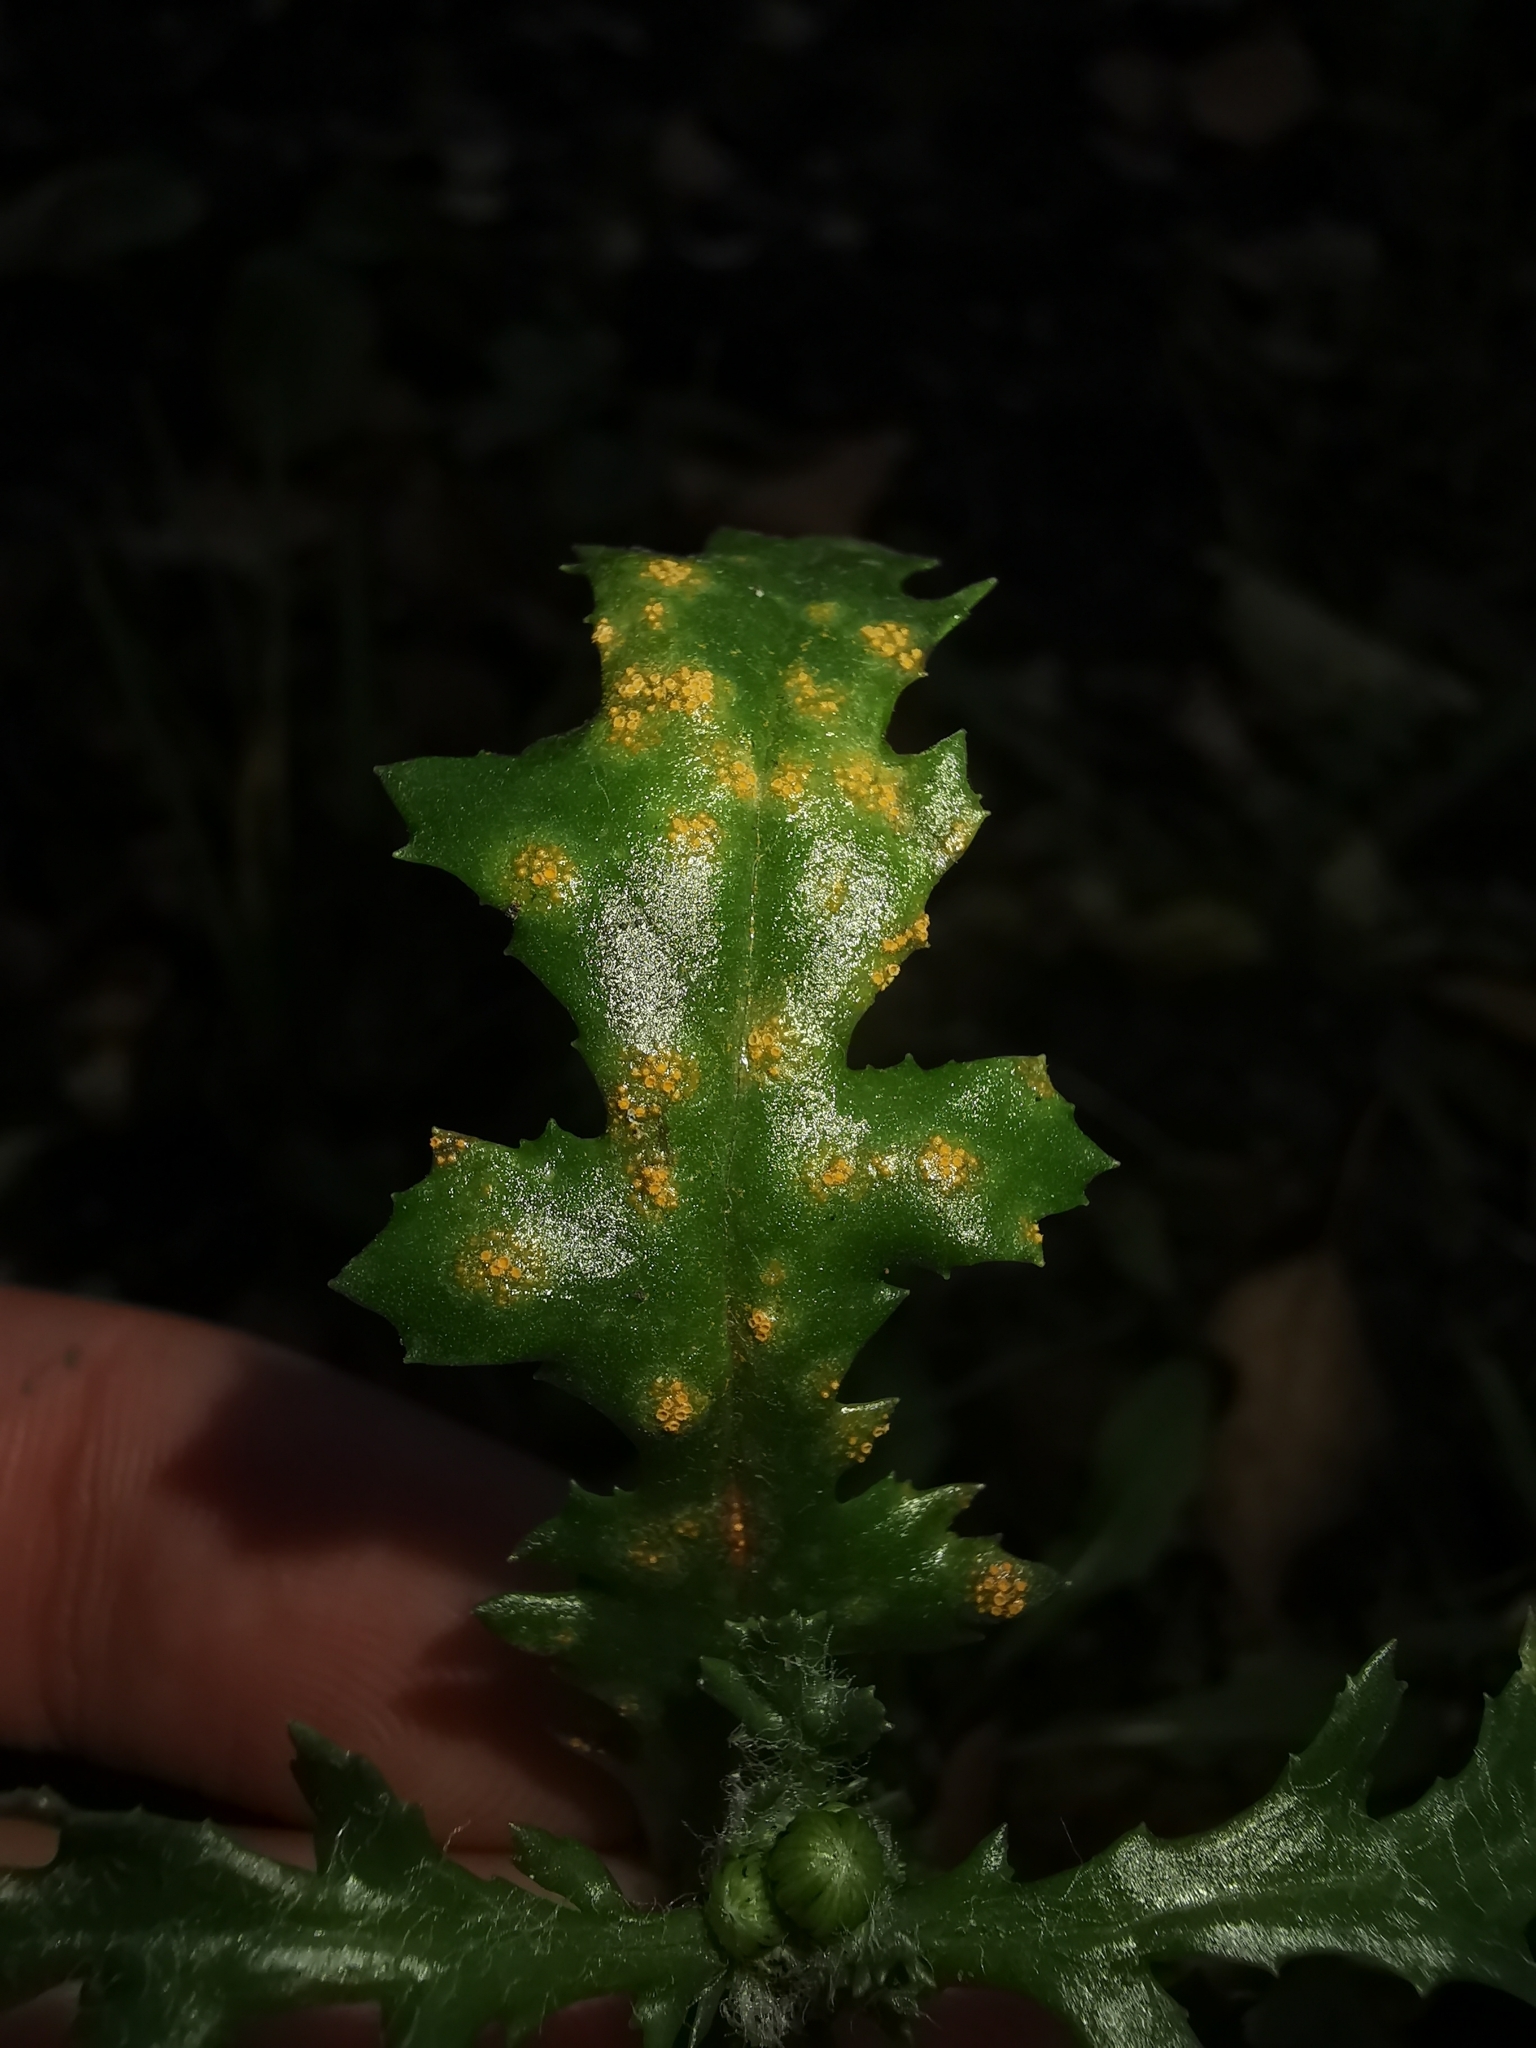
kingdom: Fungi
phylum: Basidiomycota
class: Pucciniomycetes
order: Pucciniales
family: Pucciniaceae
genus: Puccinia
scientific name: Puccinia lagenophorae
